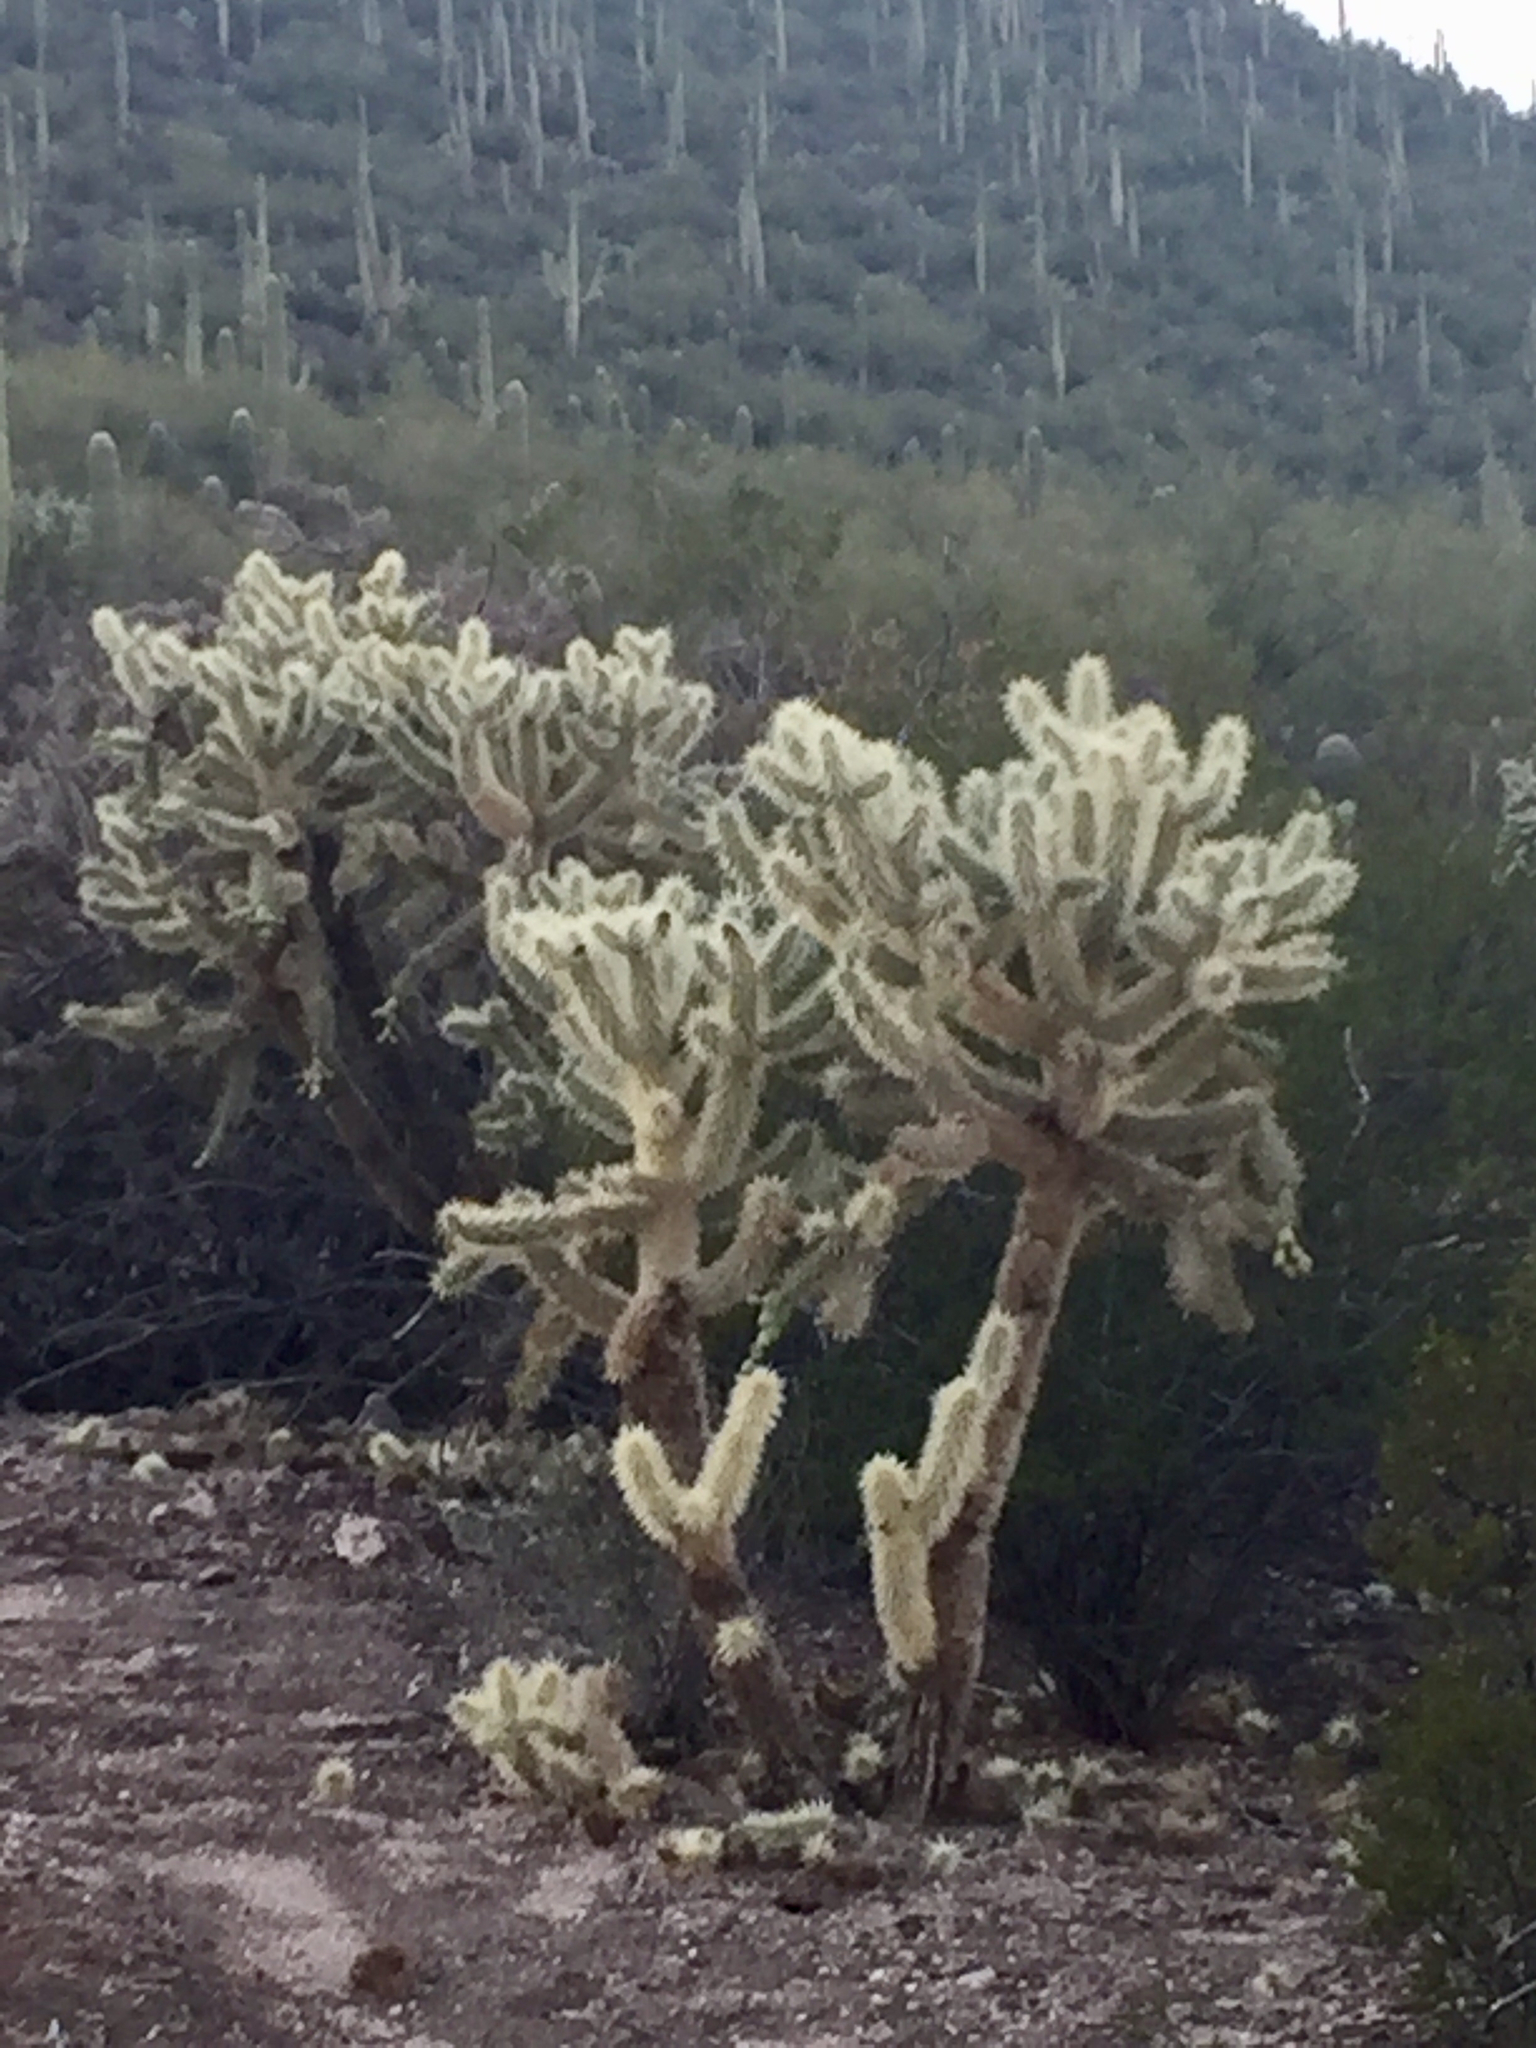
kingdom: Plantae
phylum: Tracheophyta
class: Magnoliopsida
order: Caryophyllales
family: Cactaceae
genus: Cylindropuntia
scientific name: Cylindropuntia fosbergii
